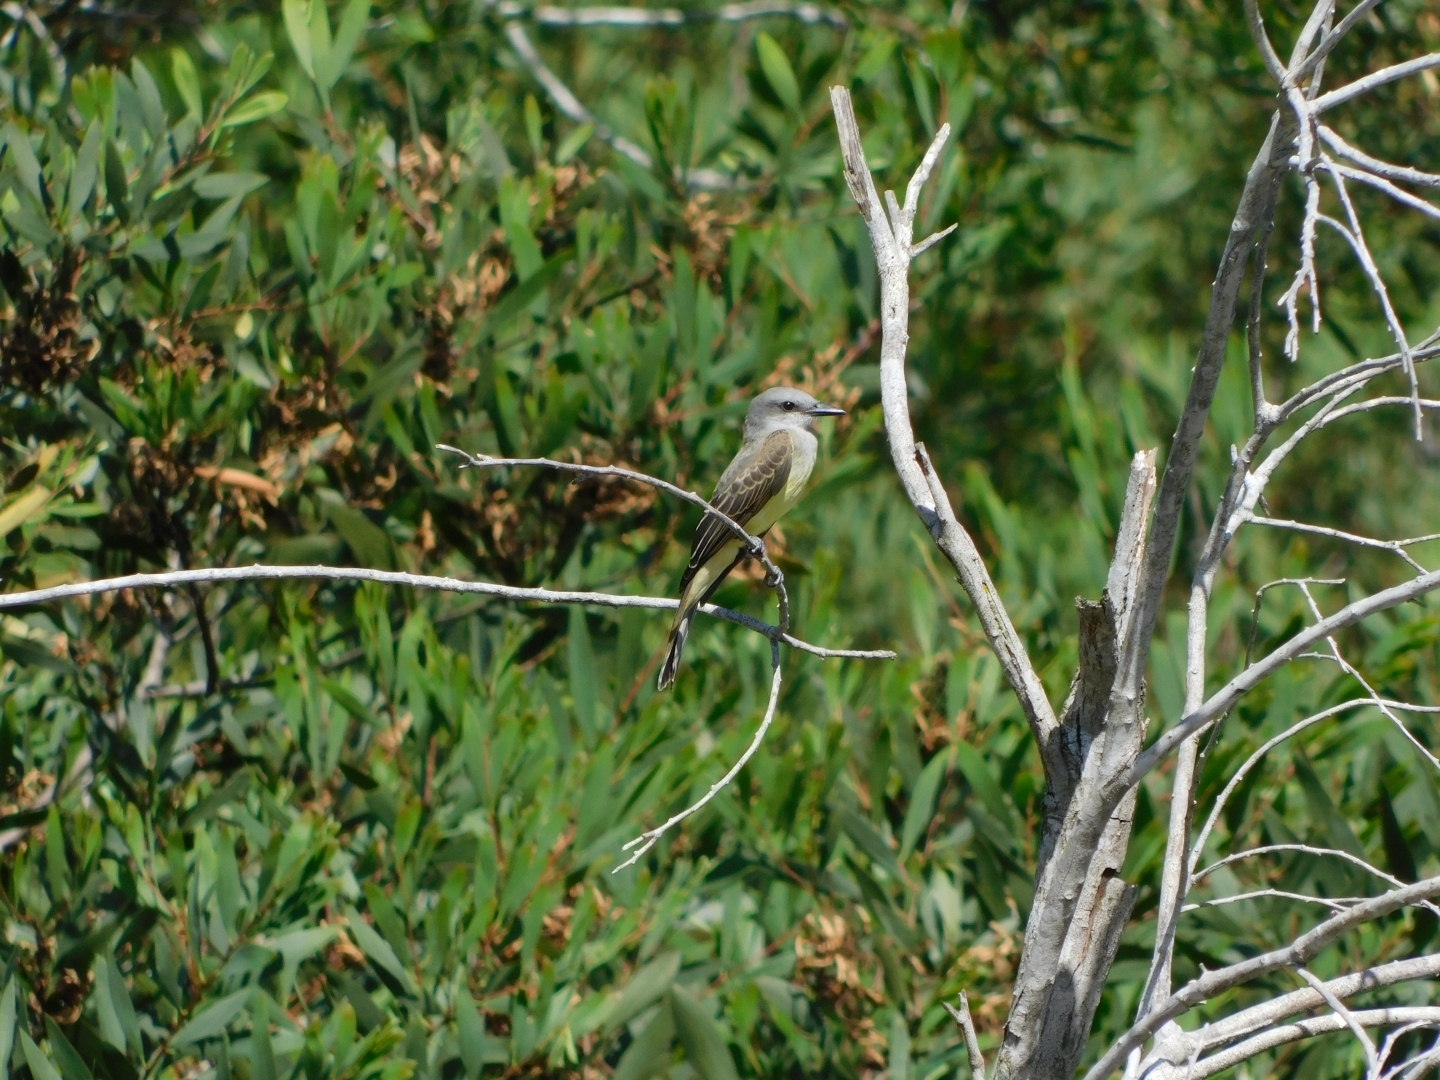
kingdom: Animalia
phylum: Chordata
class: Aves
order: Passeriformes
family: Tyrannidae
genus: Tyrannus
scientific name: Tyrannus melancholicus
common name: Tropical kingbird
